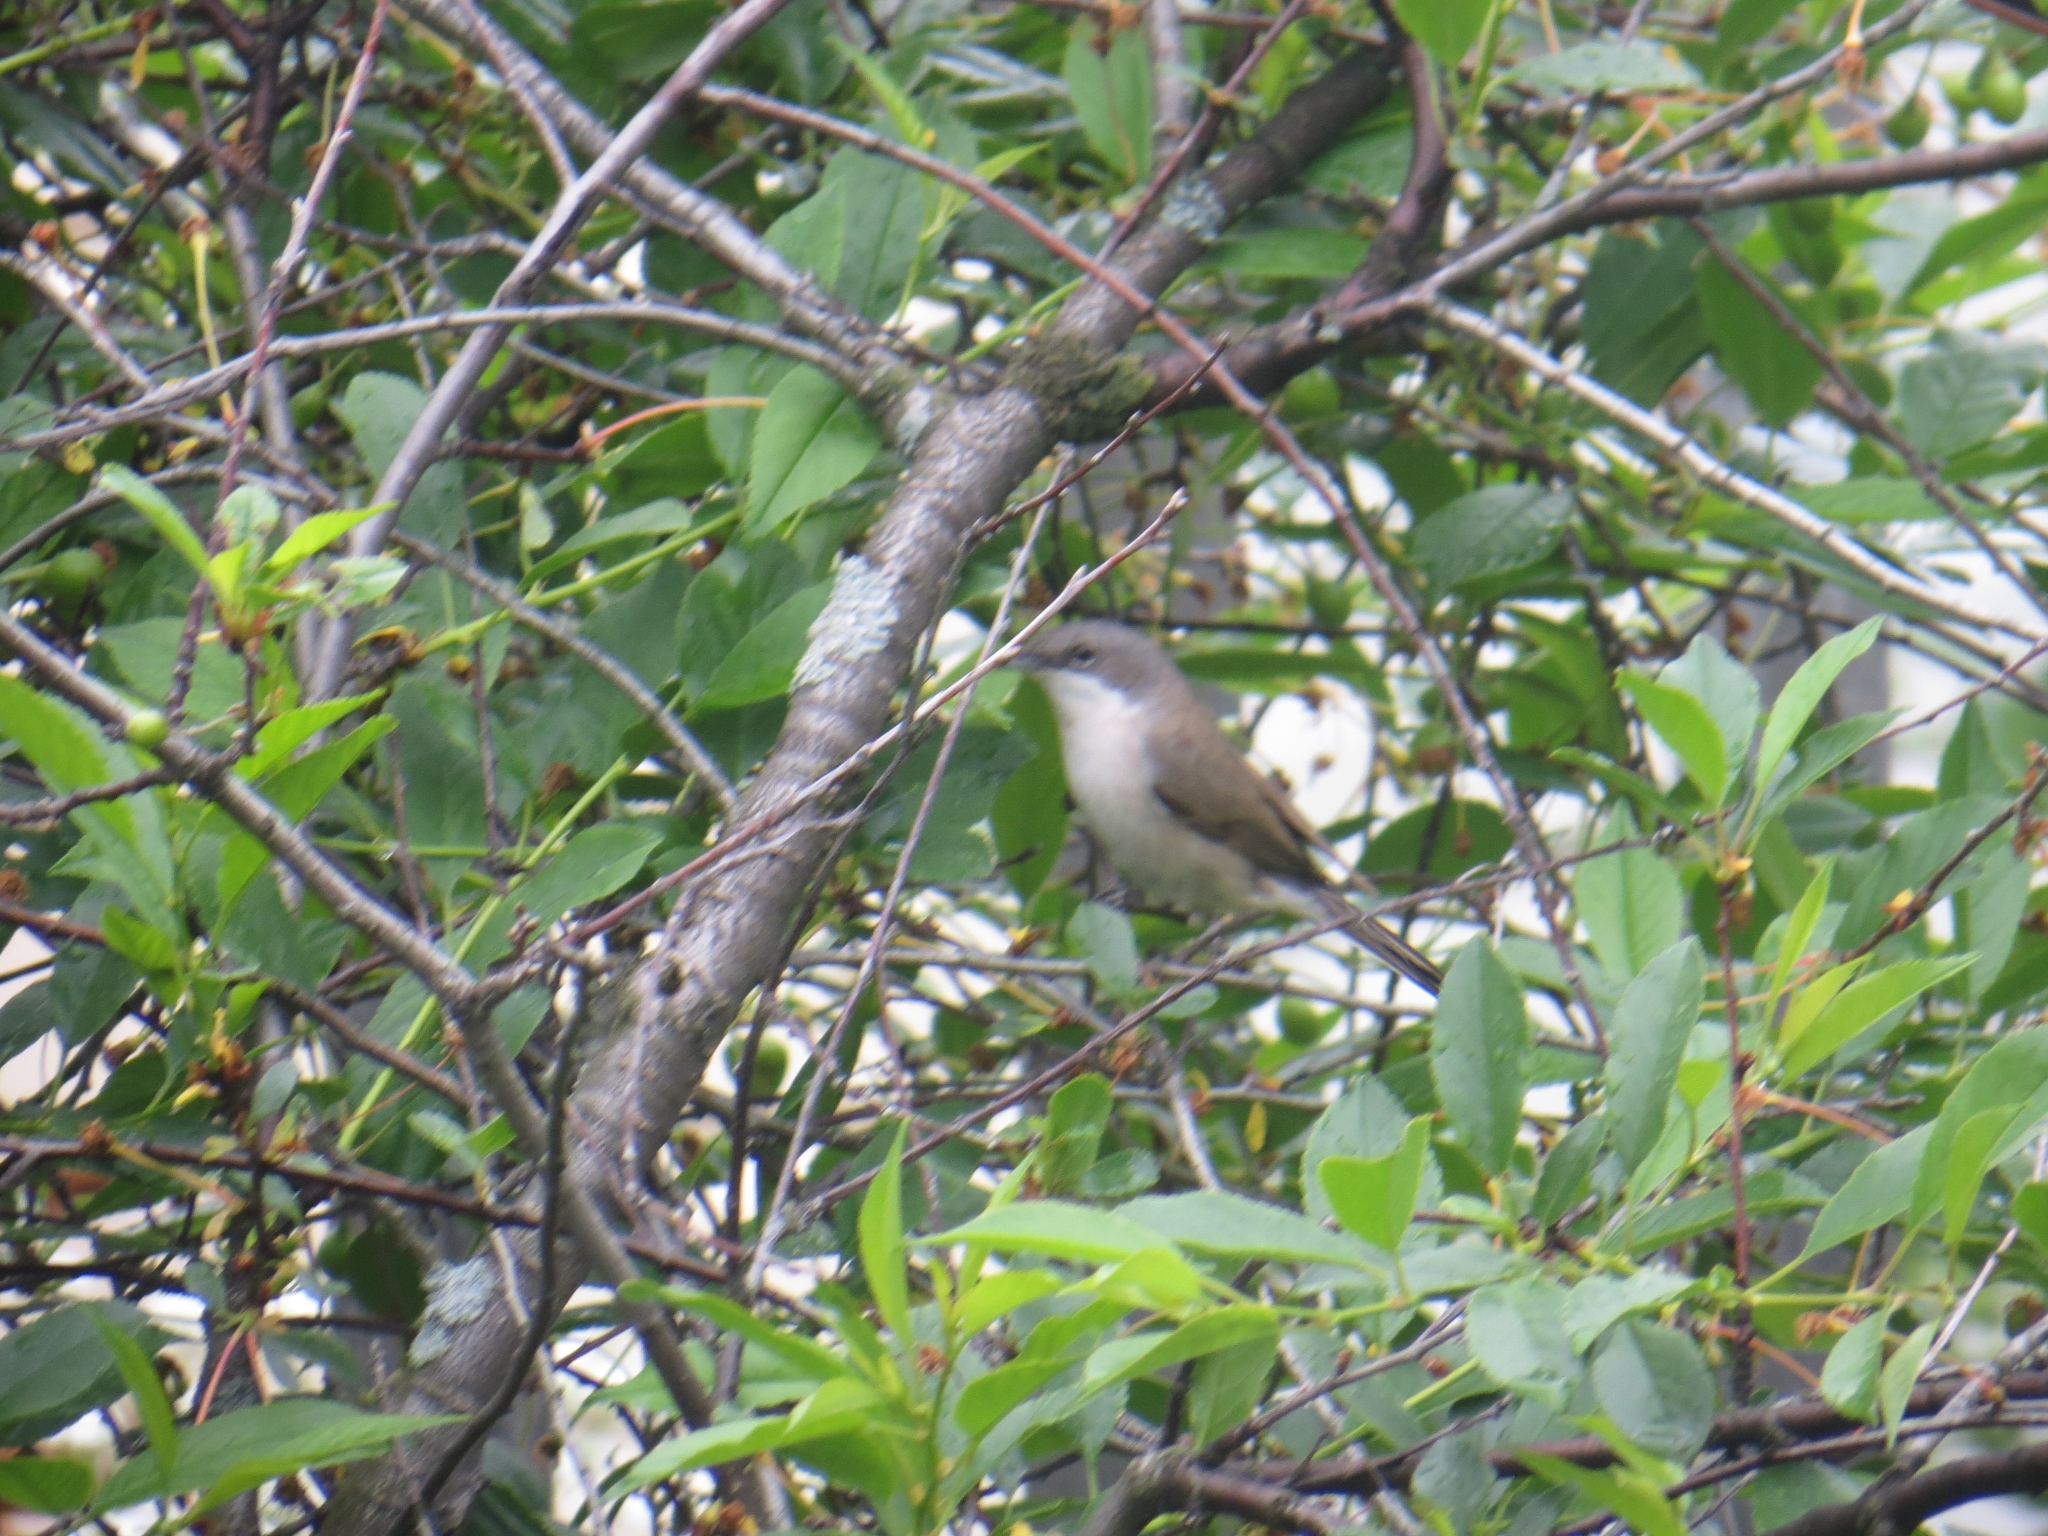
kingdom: Animalia
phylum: Chordata
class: Aves
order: Passeriformes
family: Sylviidae
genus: Sylvia
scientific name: Sylvia curruca
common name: Lesser whitethroat
